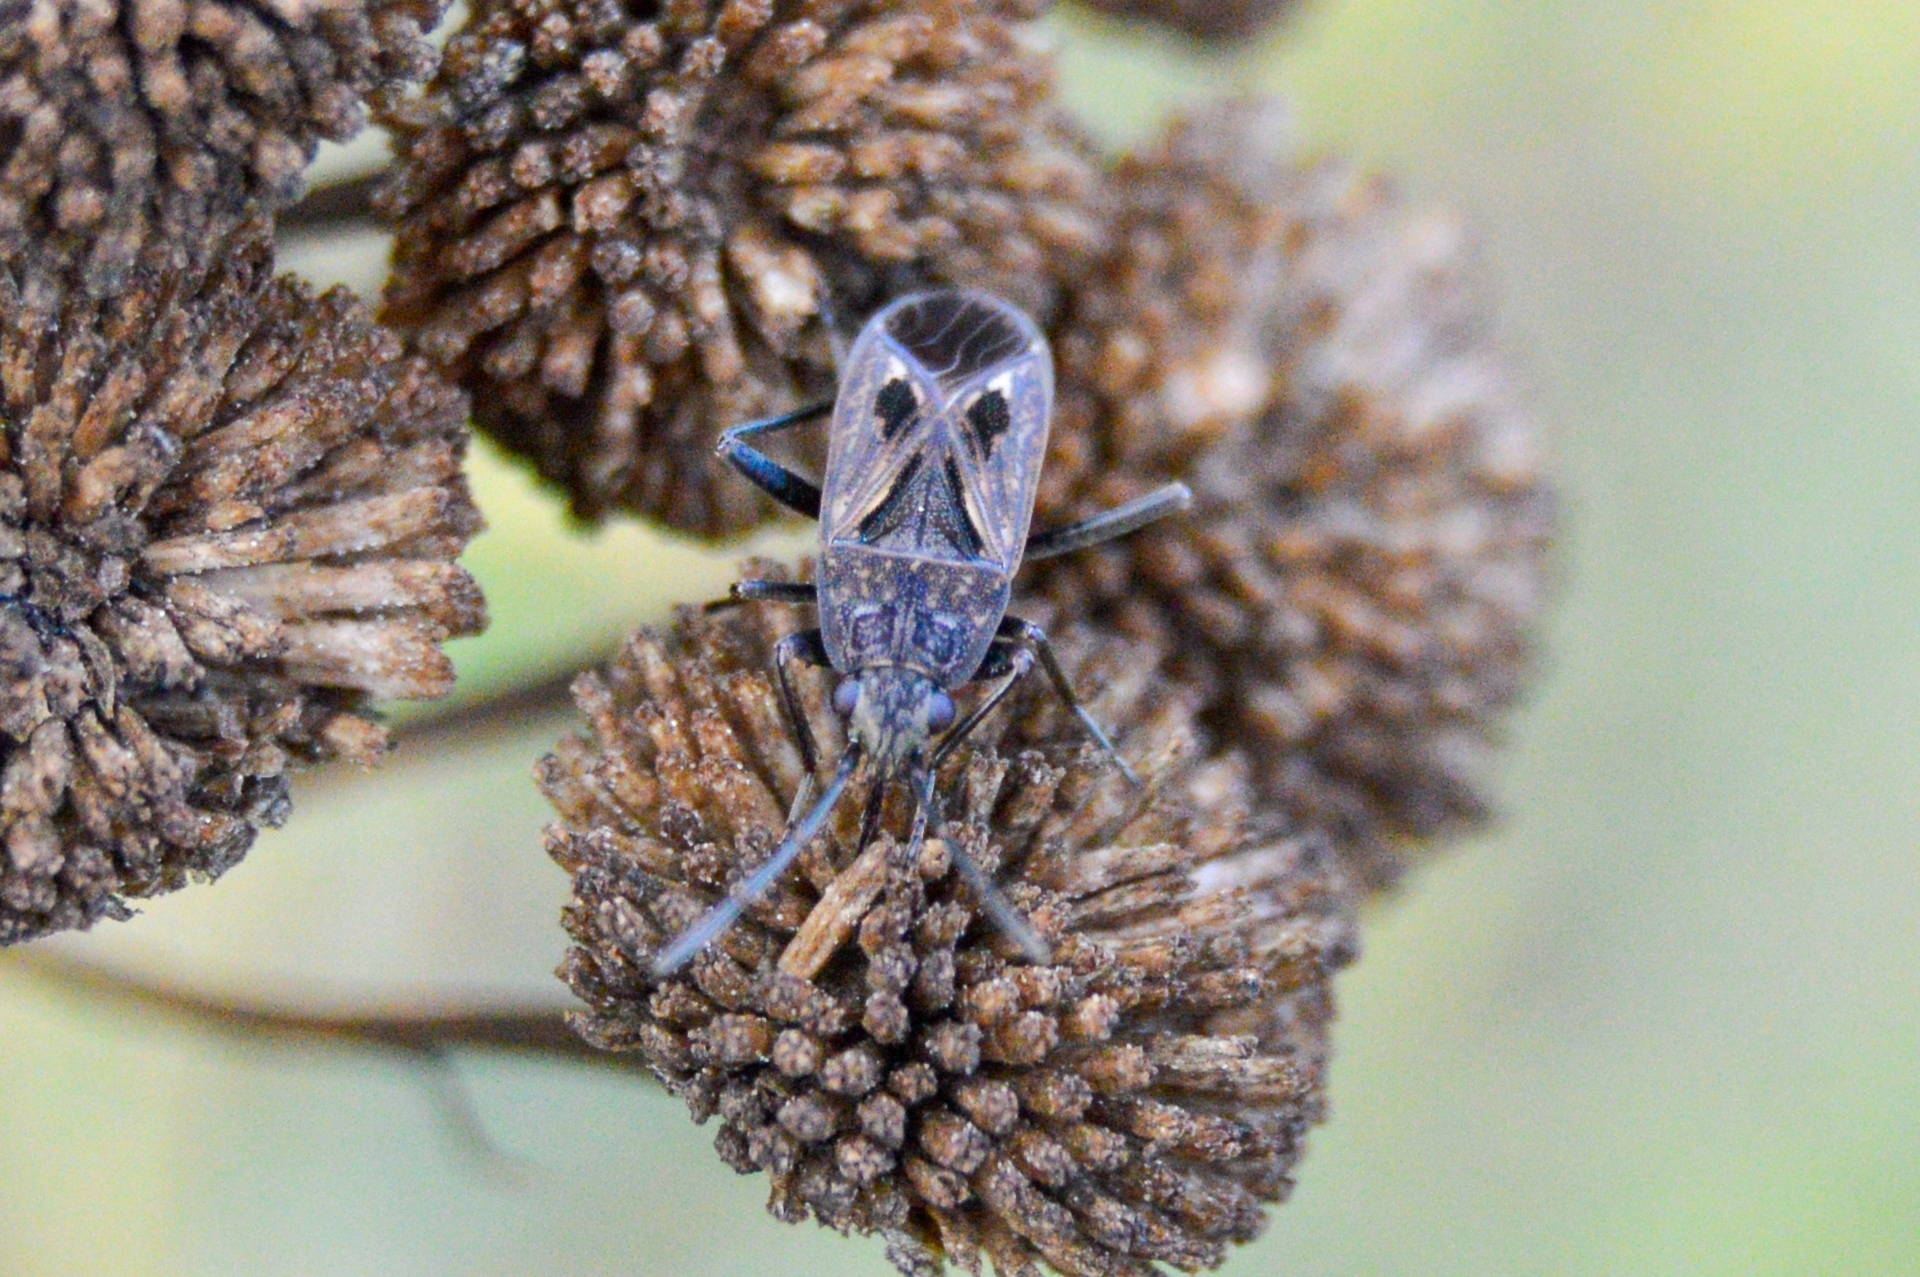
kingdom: Animalia
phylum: Arthropoda
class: Insecta
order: Hemiptera
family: Rhyparochromidae
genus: Rhyparochromus
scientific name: Rhyparochromus pini
